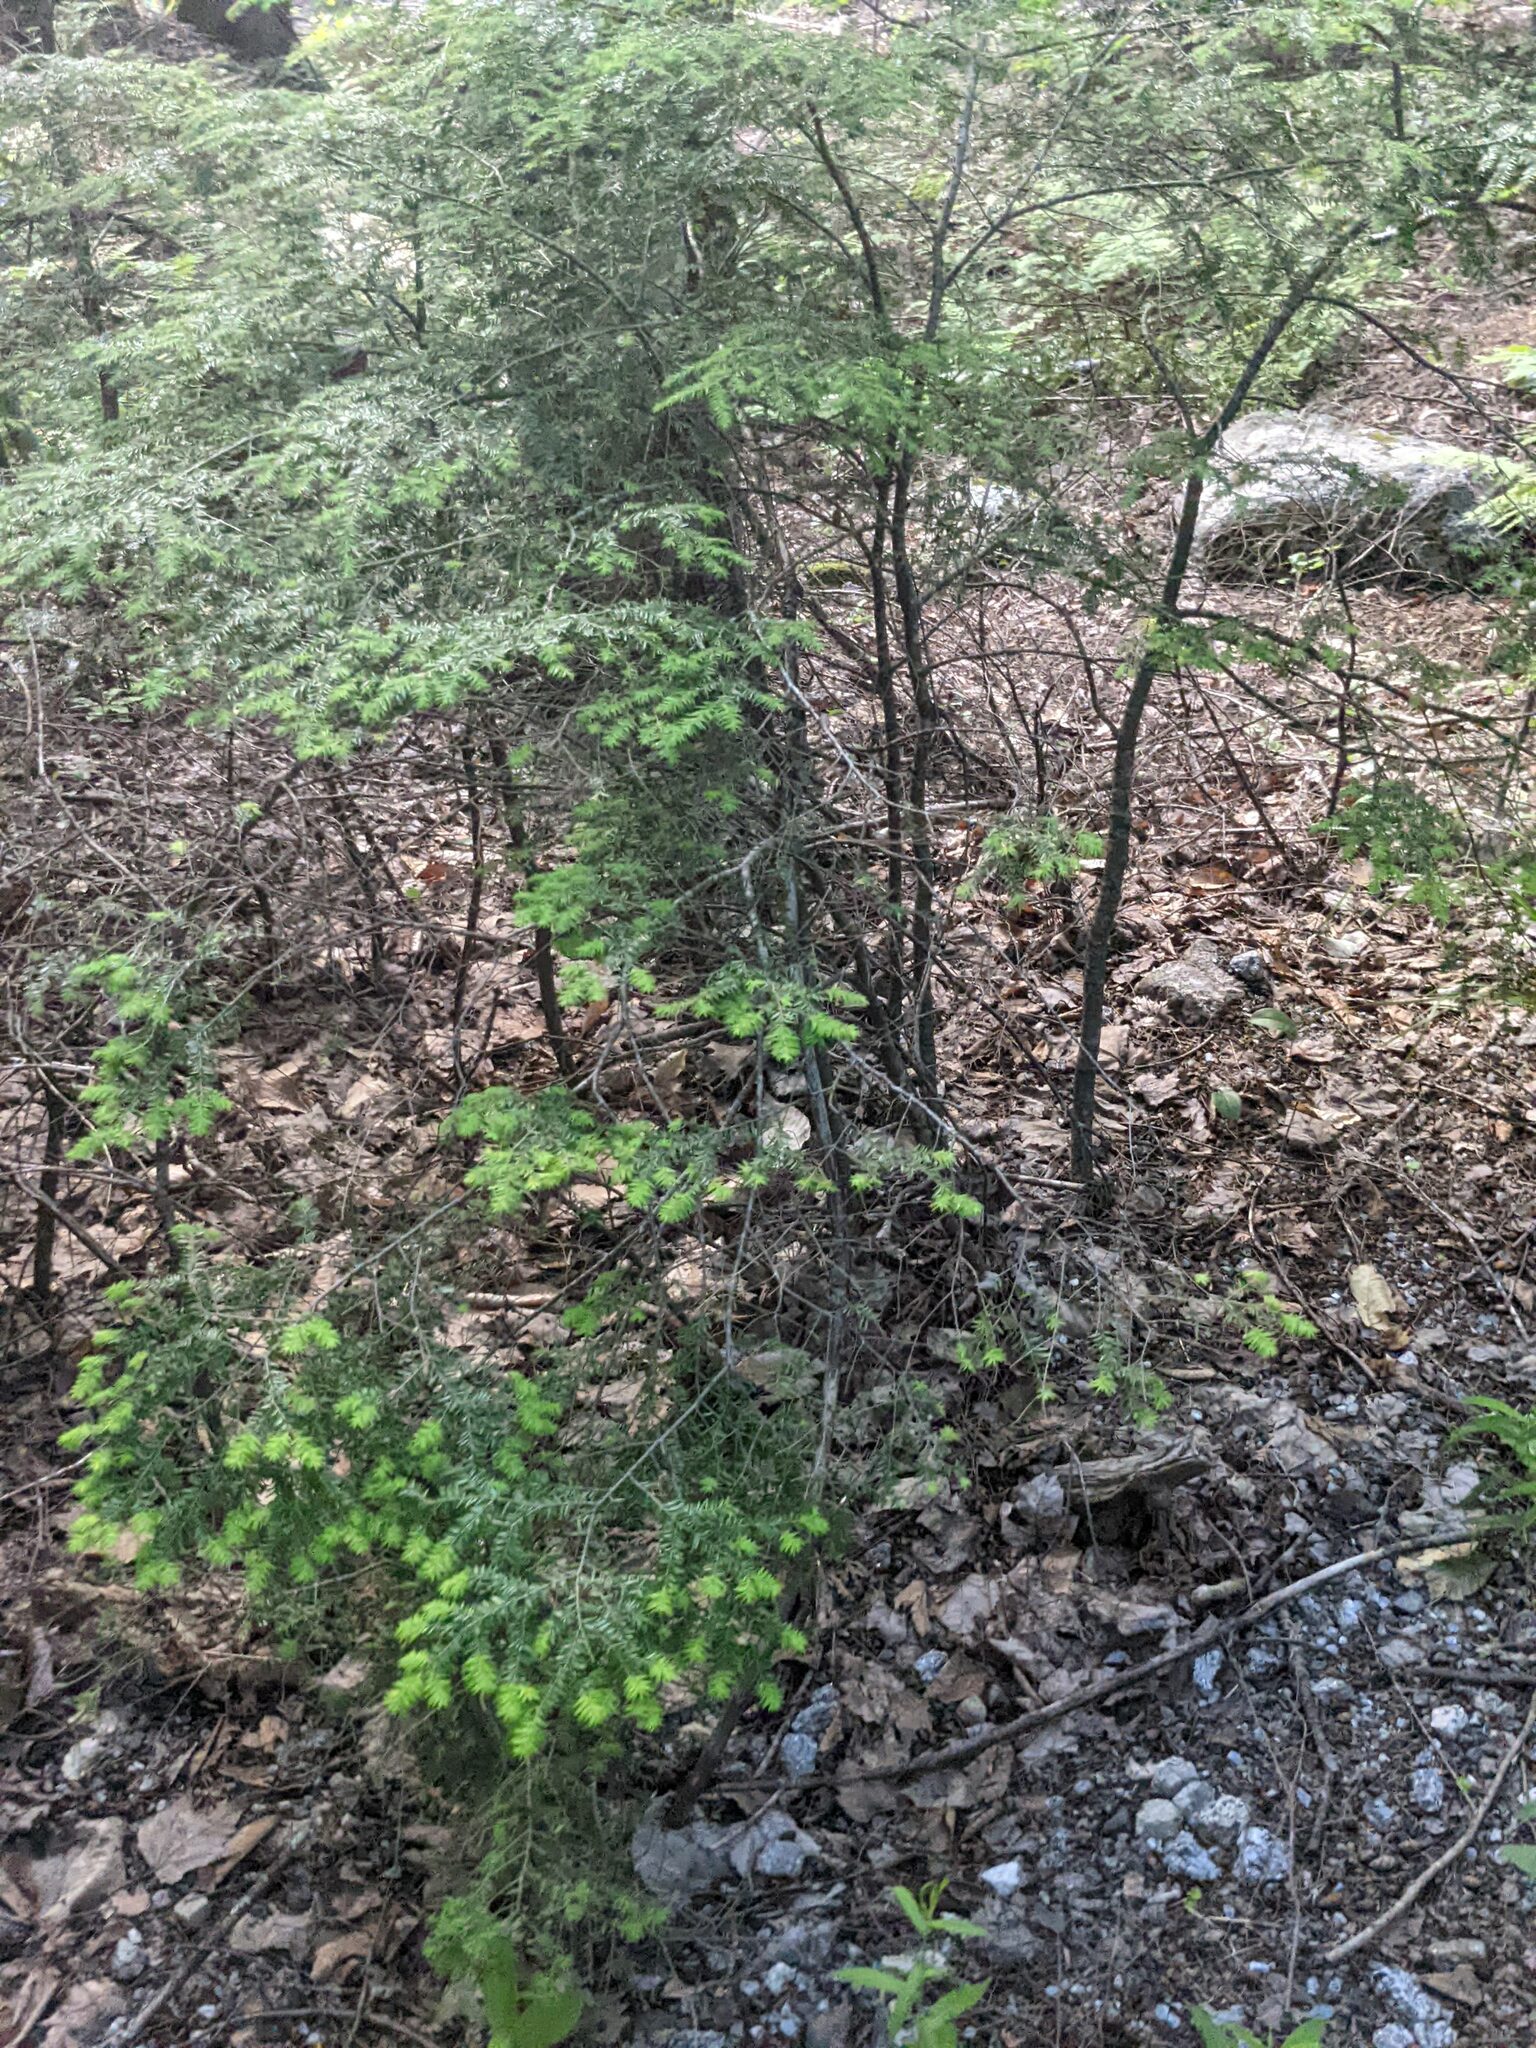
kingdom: Plantae
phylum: Tracheophyta
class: Pinopsida
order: Pinales
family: Pinaceae
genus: Tsuga
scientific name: Tsuga canadensis
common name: Eastern hemlock
